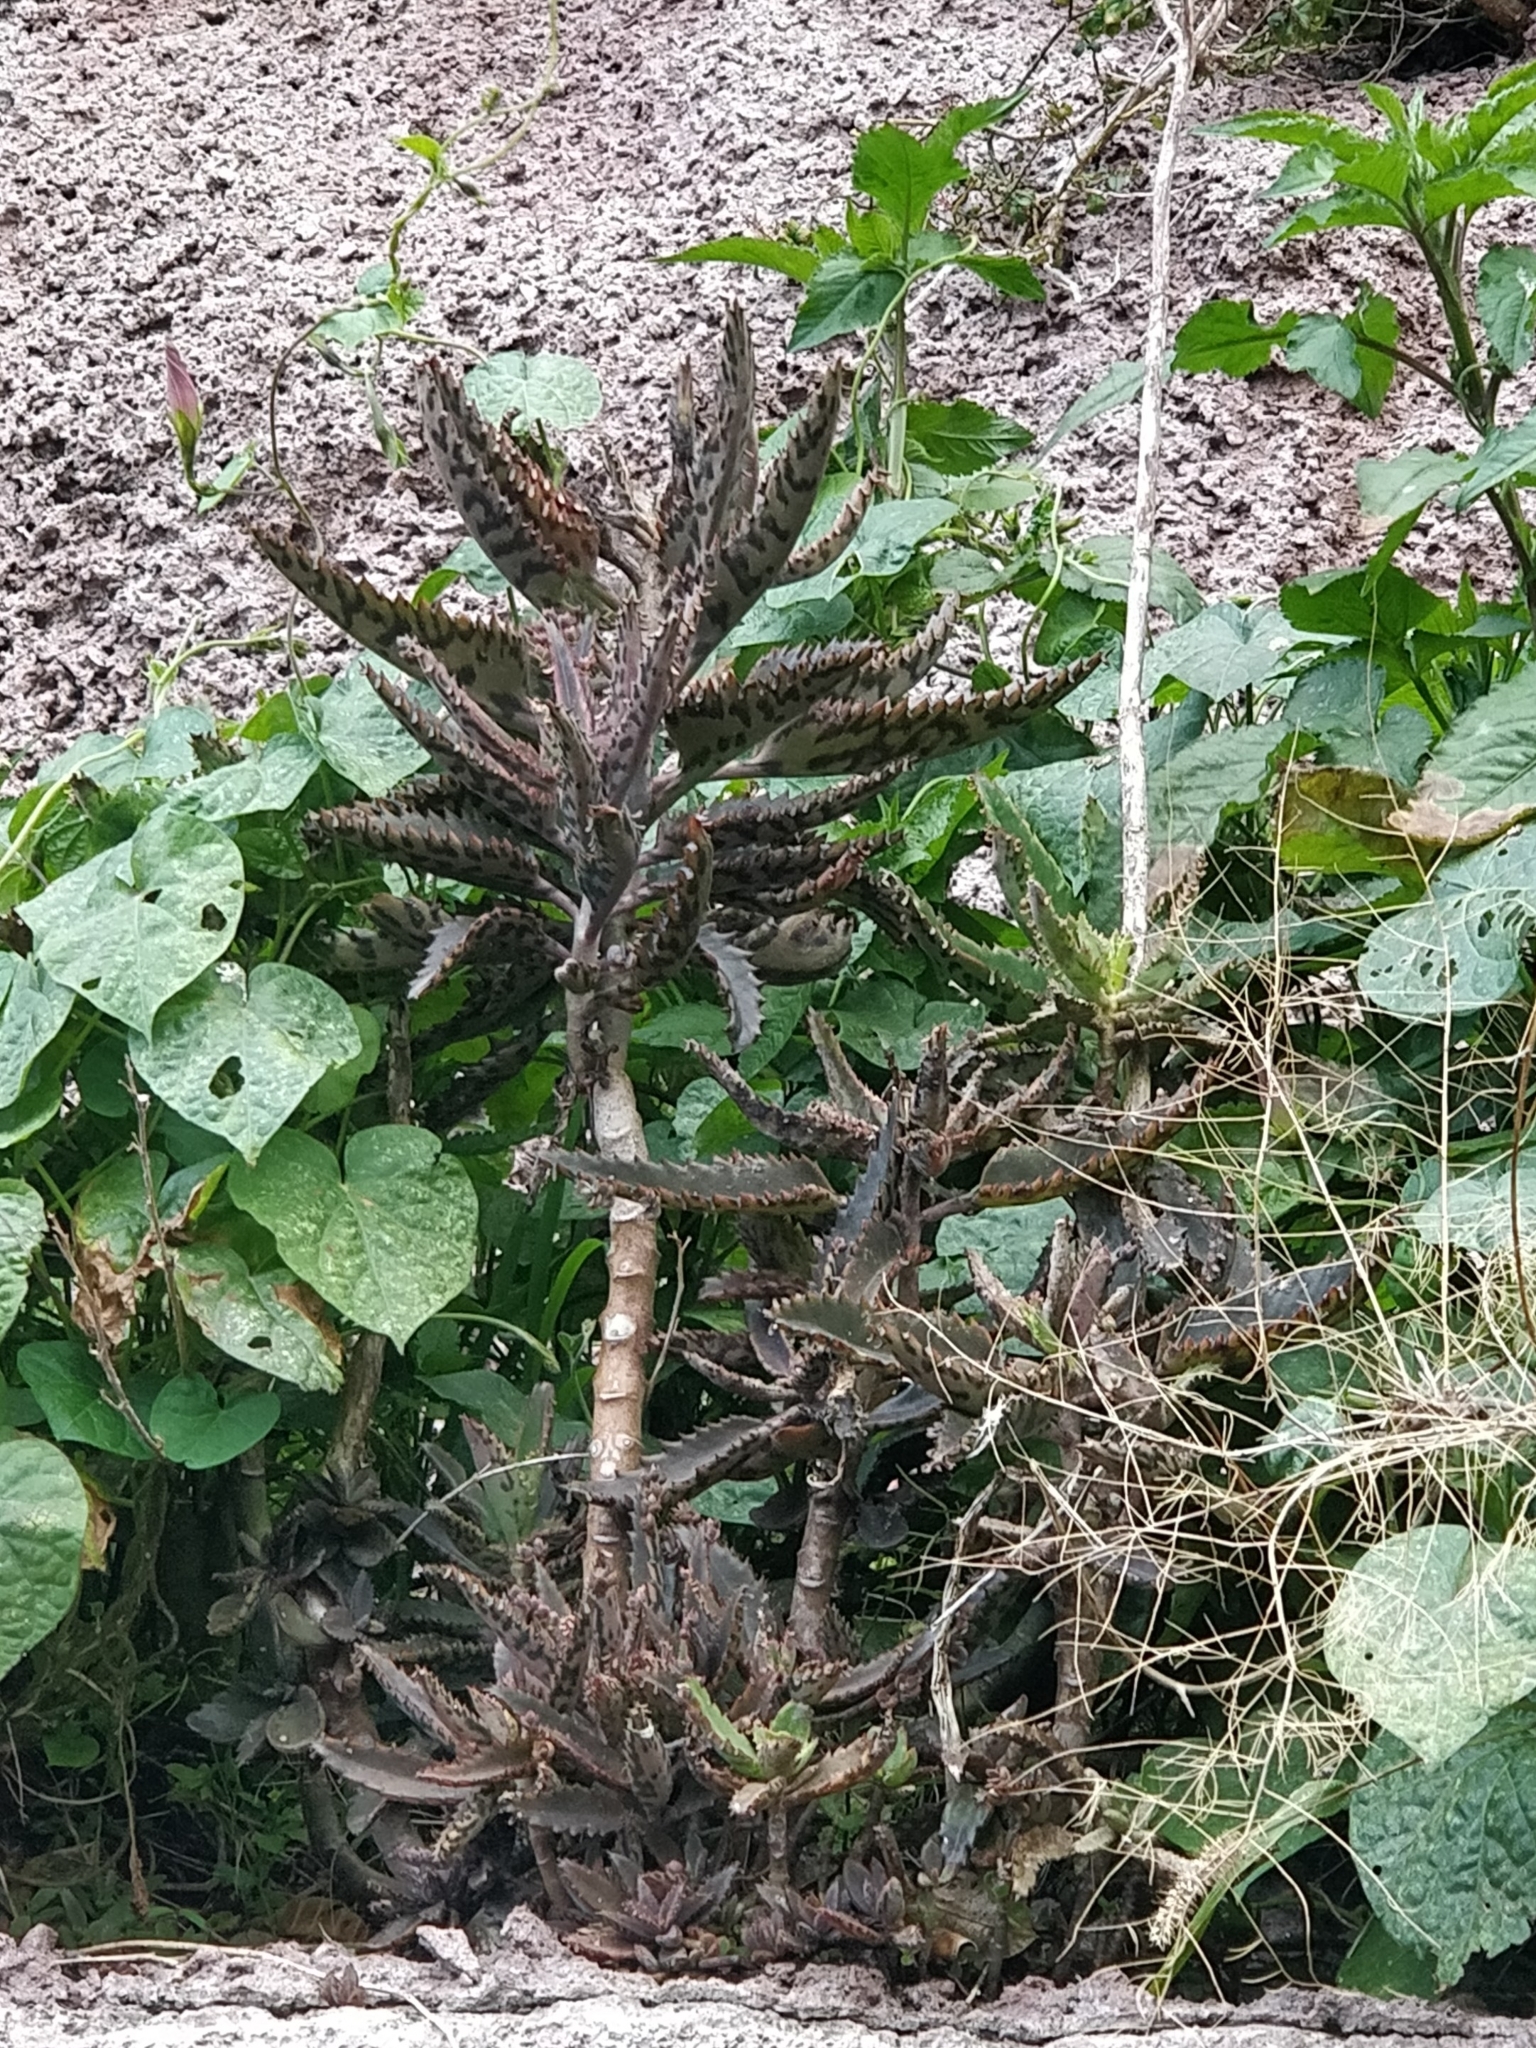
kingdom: Plantae
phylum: Tracheophyta
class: Magnoliopsida
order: Saxifragales
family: Crassulaceae
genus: Kalanchoe
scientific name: Kalanchoe houghtonii
